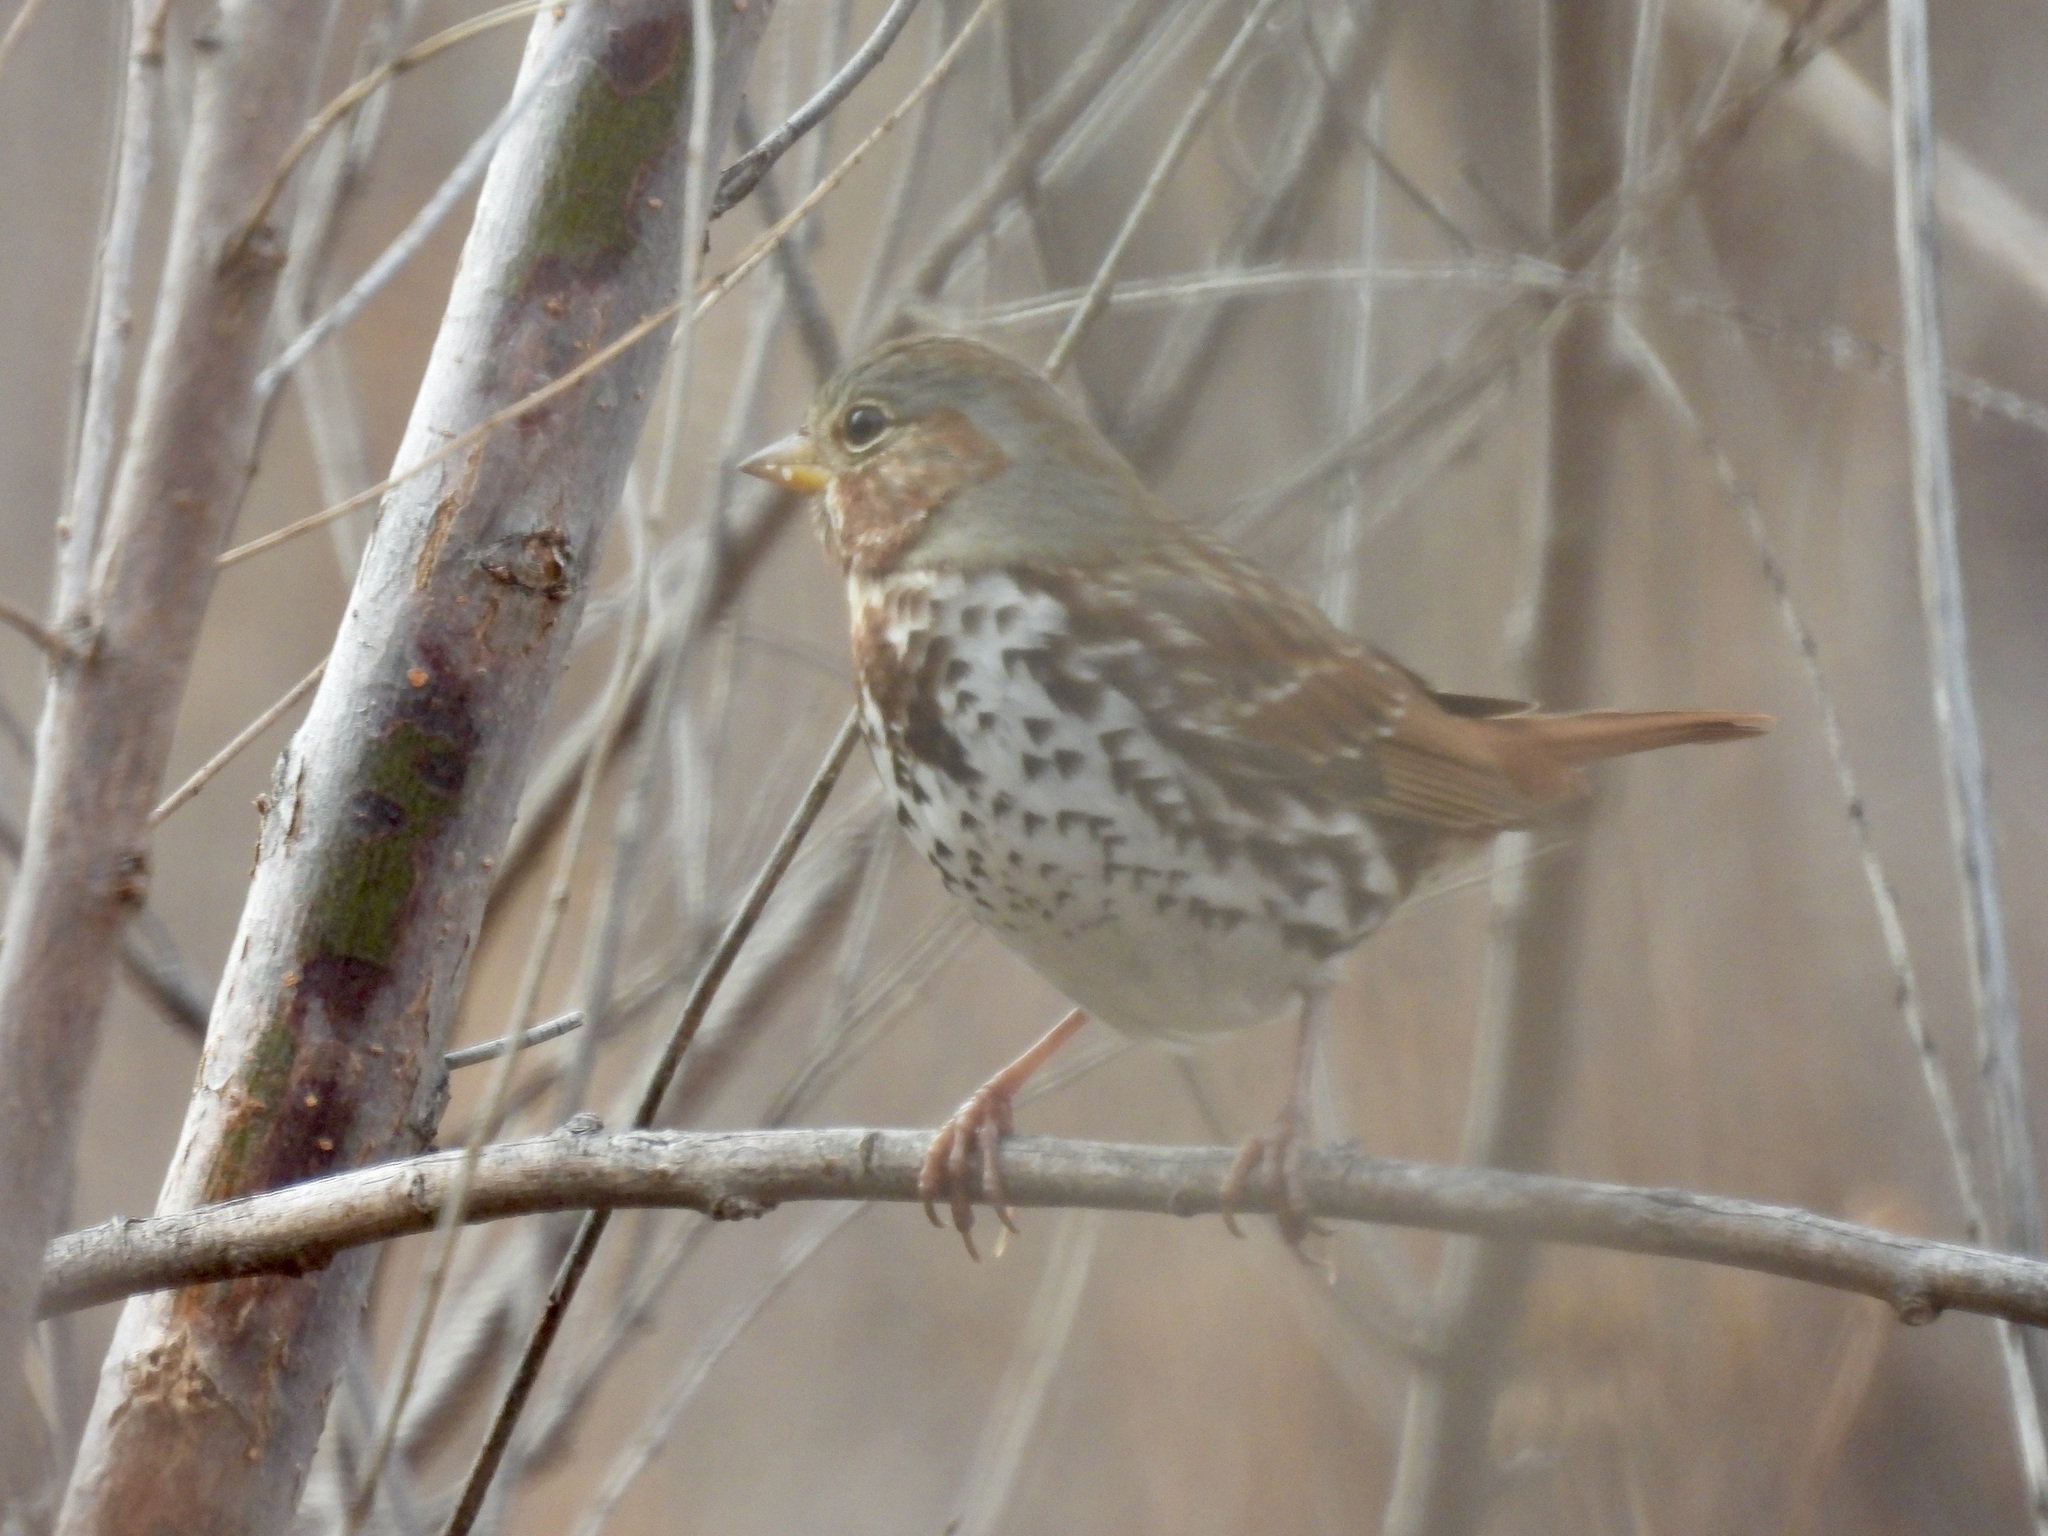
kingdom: Animalia
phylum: Chordata
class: Aves
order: Passeriformes
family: Passerellidae
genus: Passerella
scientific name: Passerella iliaca
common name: Fox sparrow
